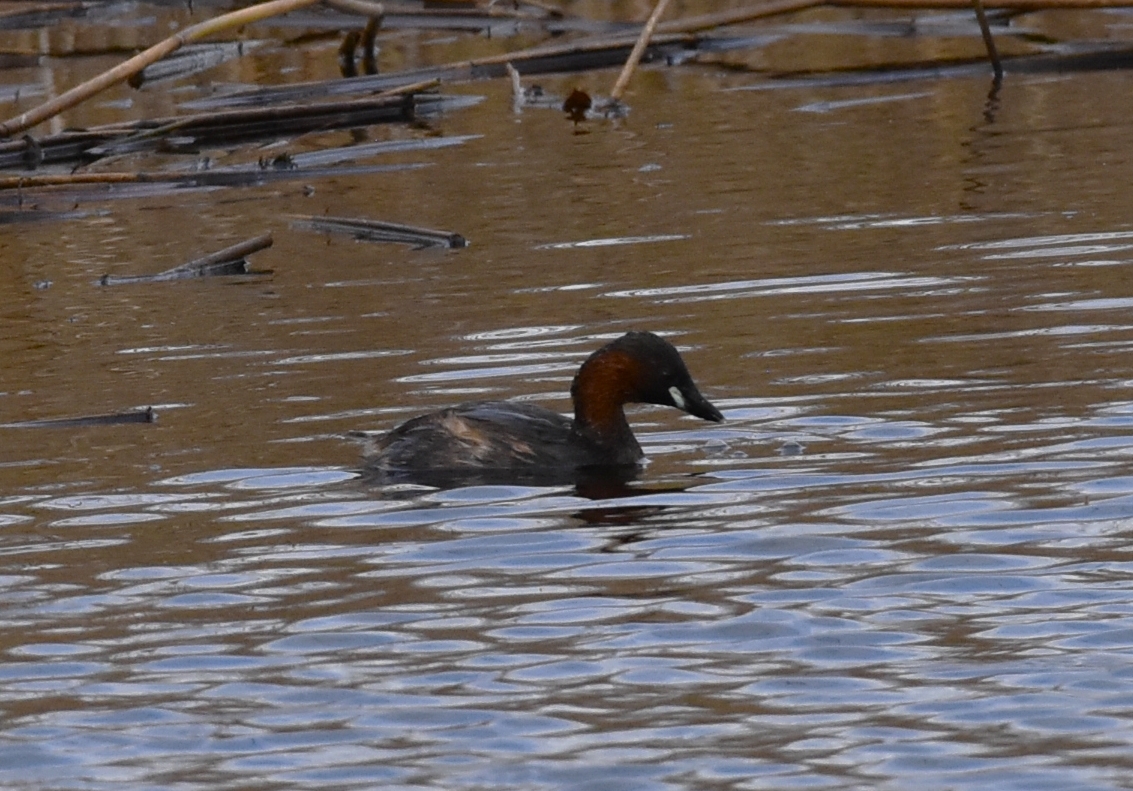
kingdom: Animalia
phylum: Chordata
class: Aves
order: Podicipediformes
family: Podicipedidae
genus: Tachybaptus
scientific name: Tachybaptus ruficollis
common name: Little grebe
